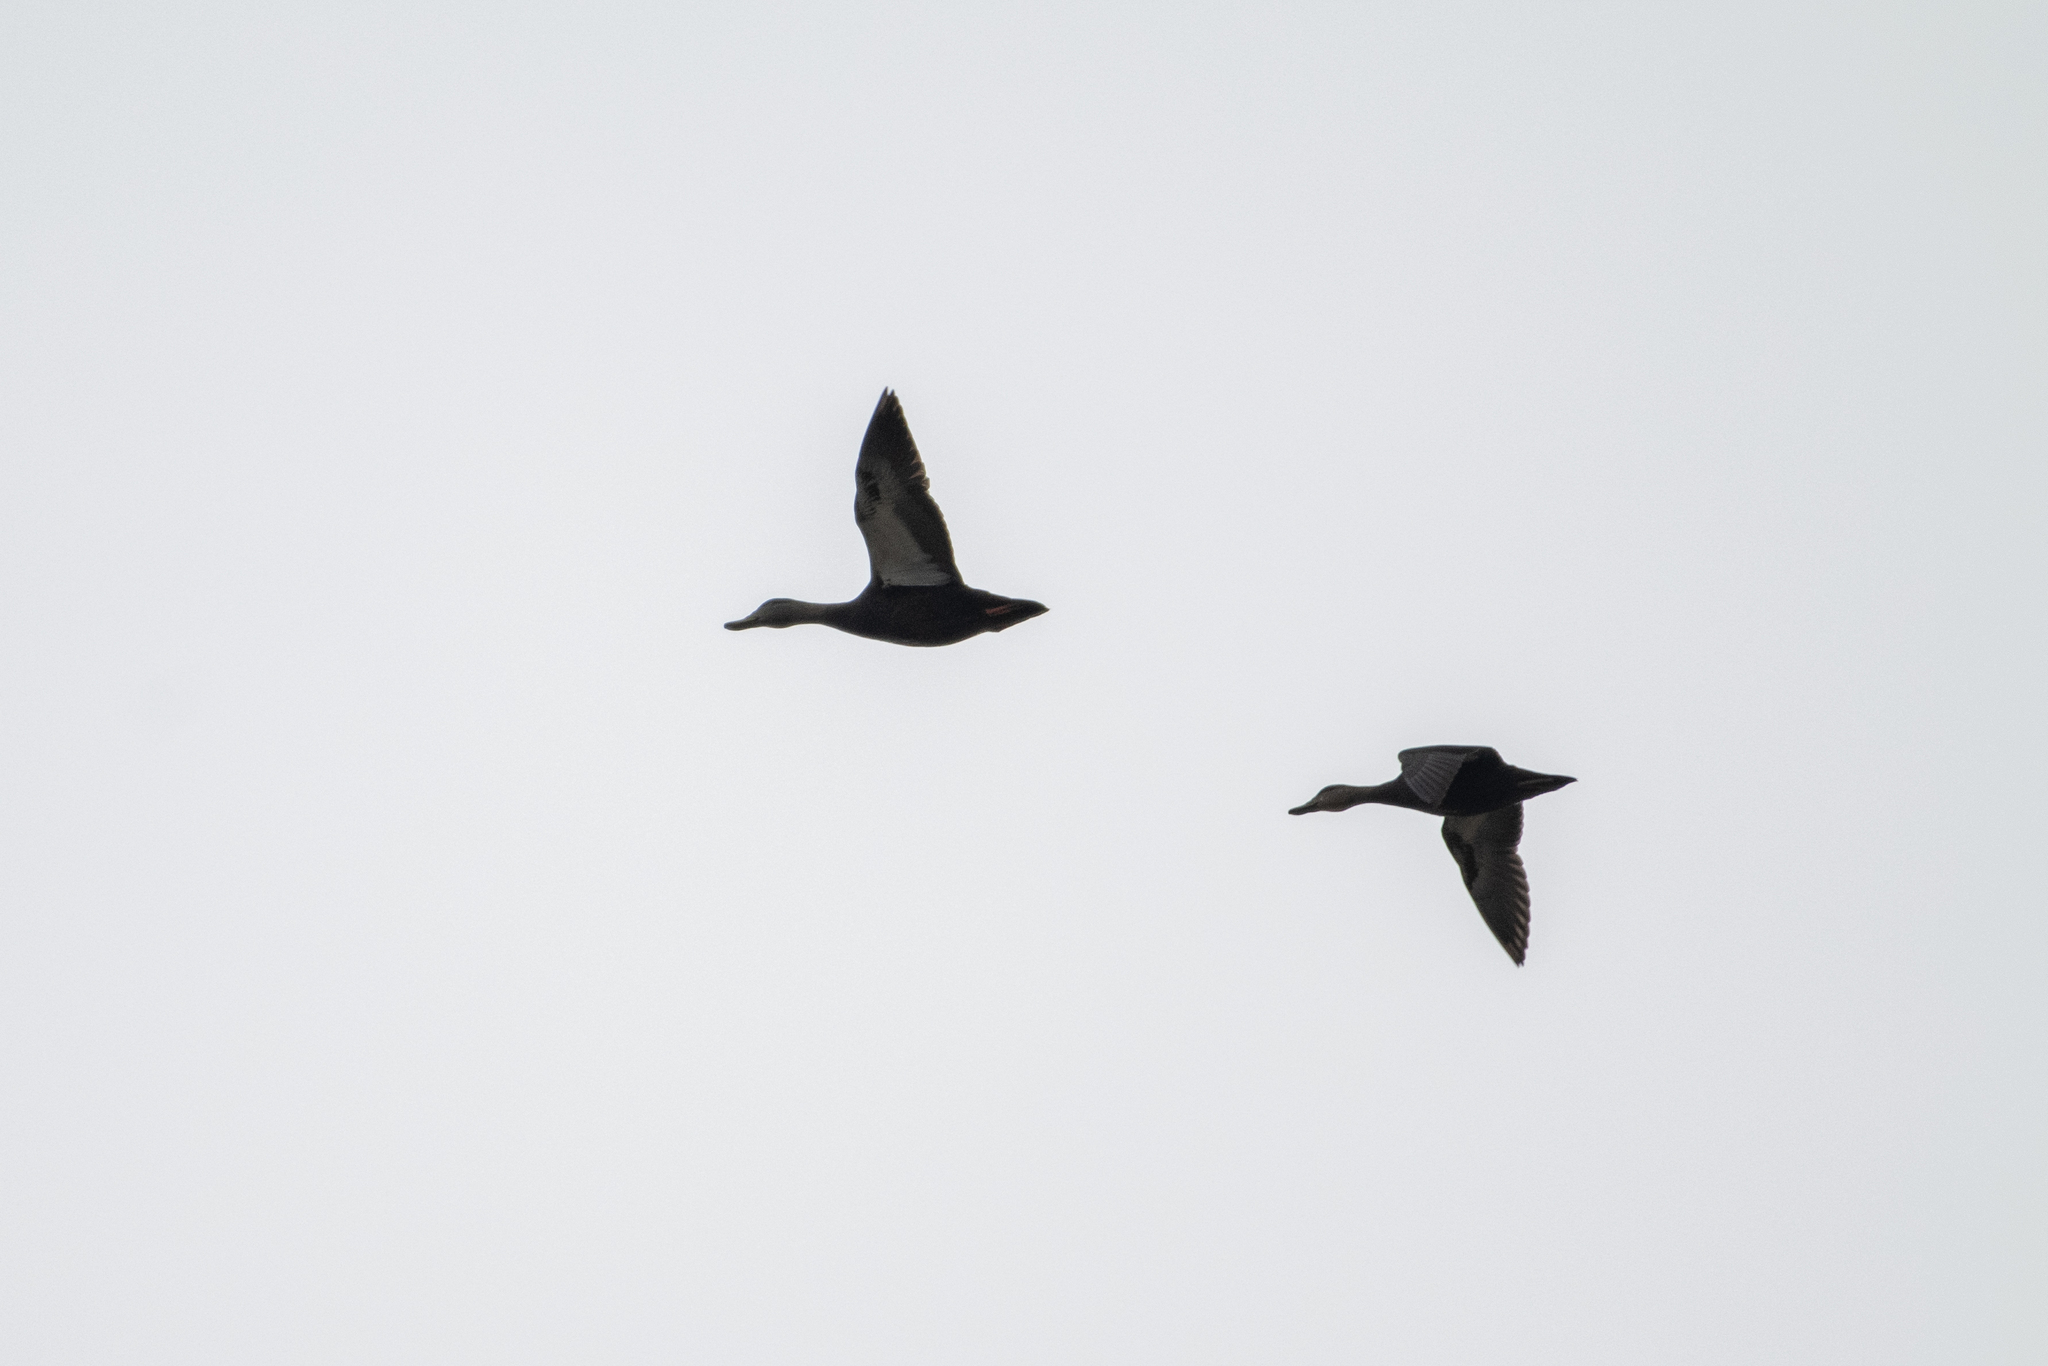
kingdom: Animalia
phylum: Chordata
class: Aves
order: Anseriformes
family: Anatidae
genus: Anas
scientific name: Anas rubripes
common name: American black duck
